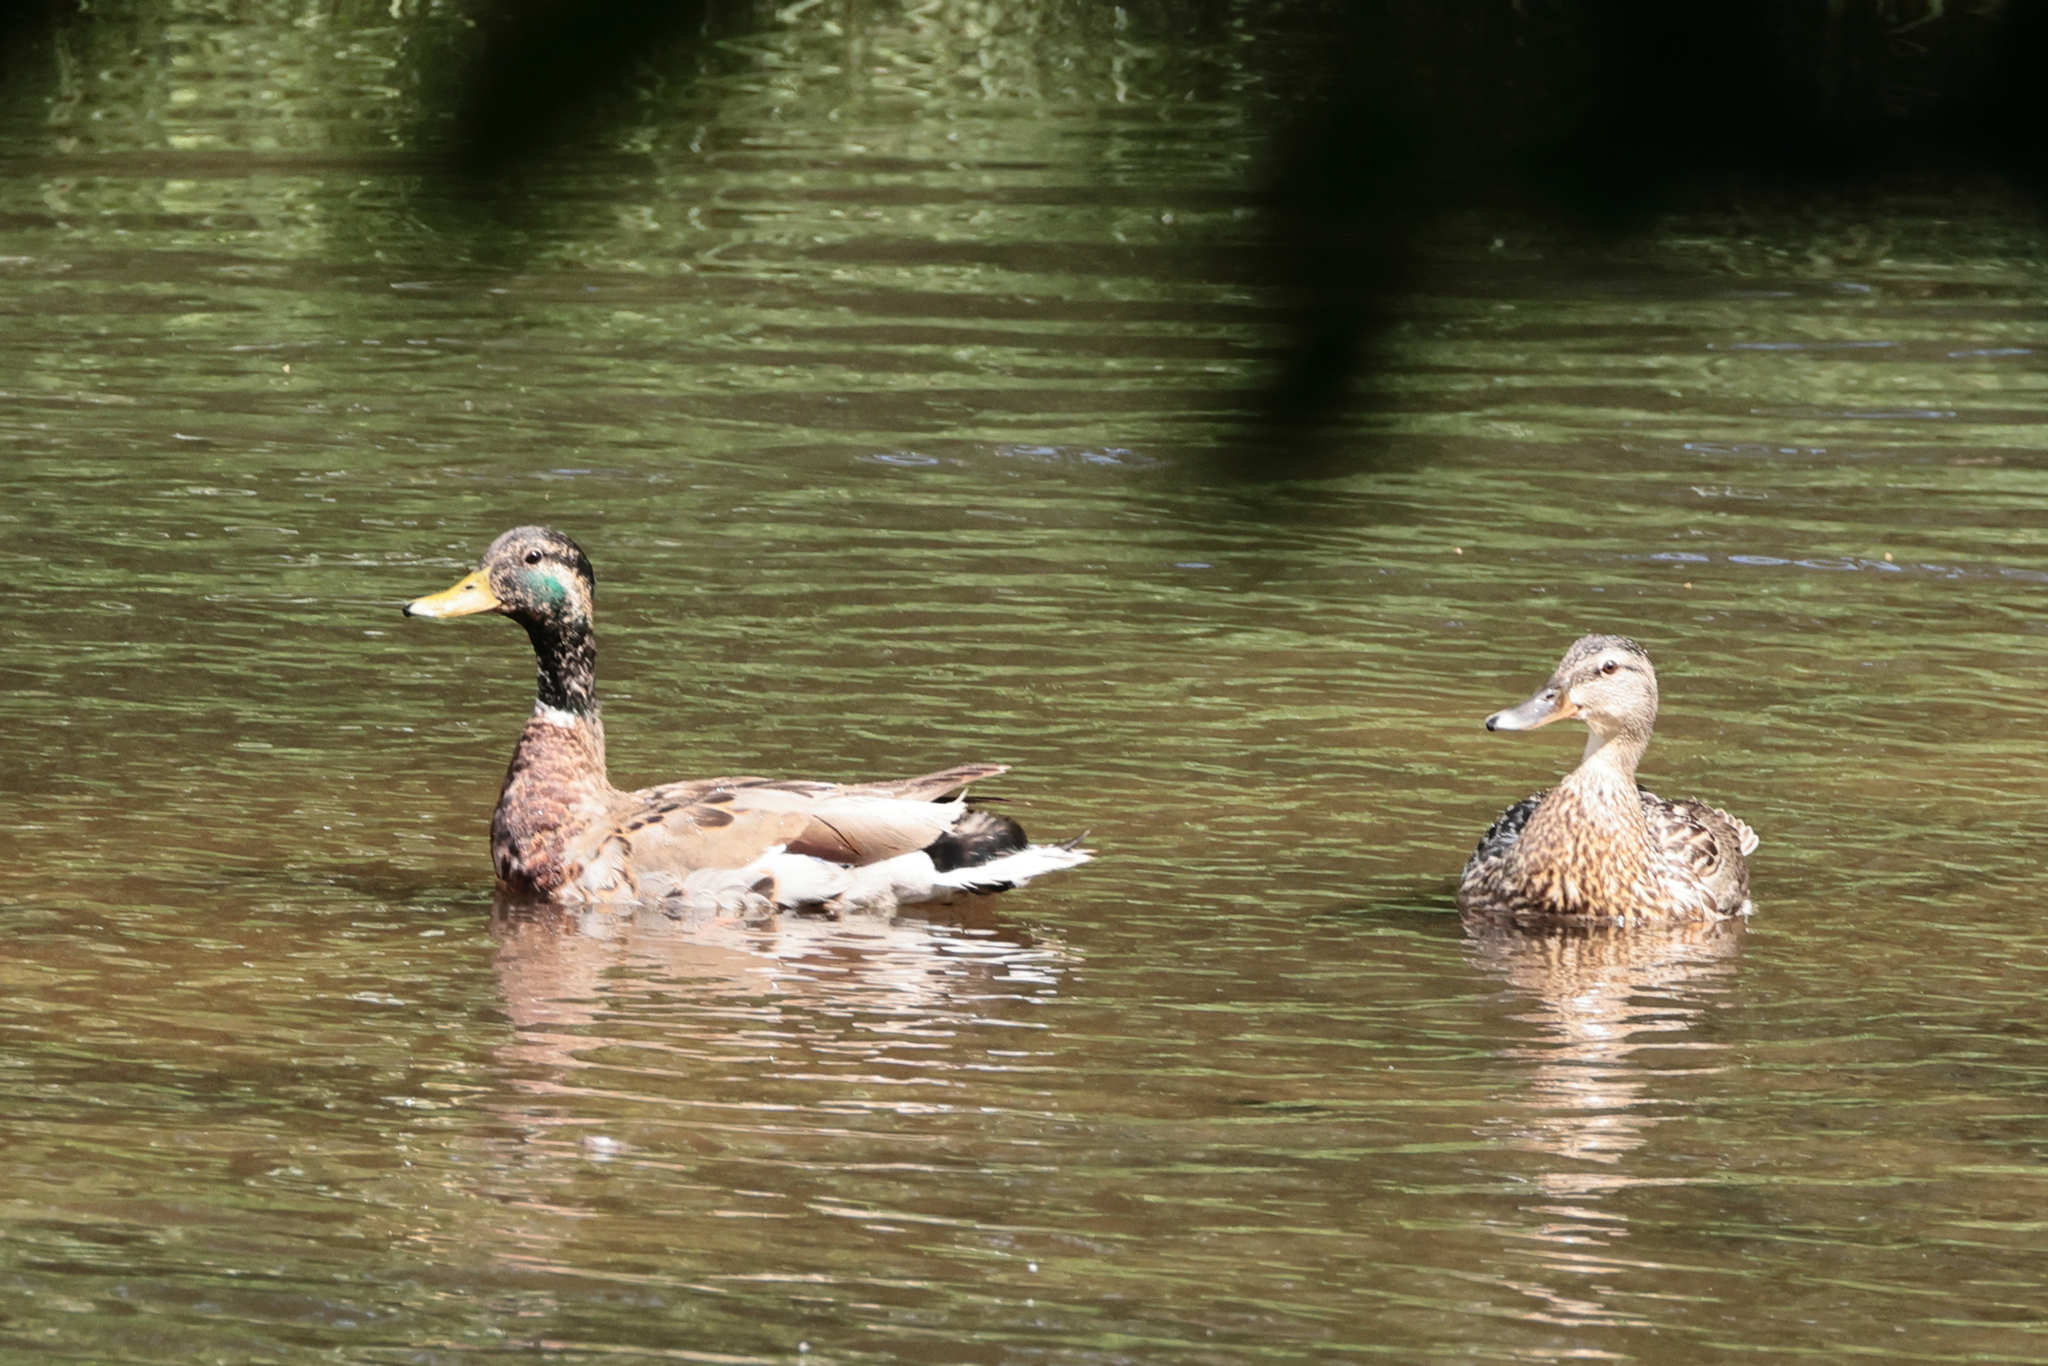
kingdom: Animalia
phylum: Chordata
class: Aves
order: Anseriformes
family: Anatidae
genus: Anas
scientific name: Anas platyrhynchos
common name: Mallard
